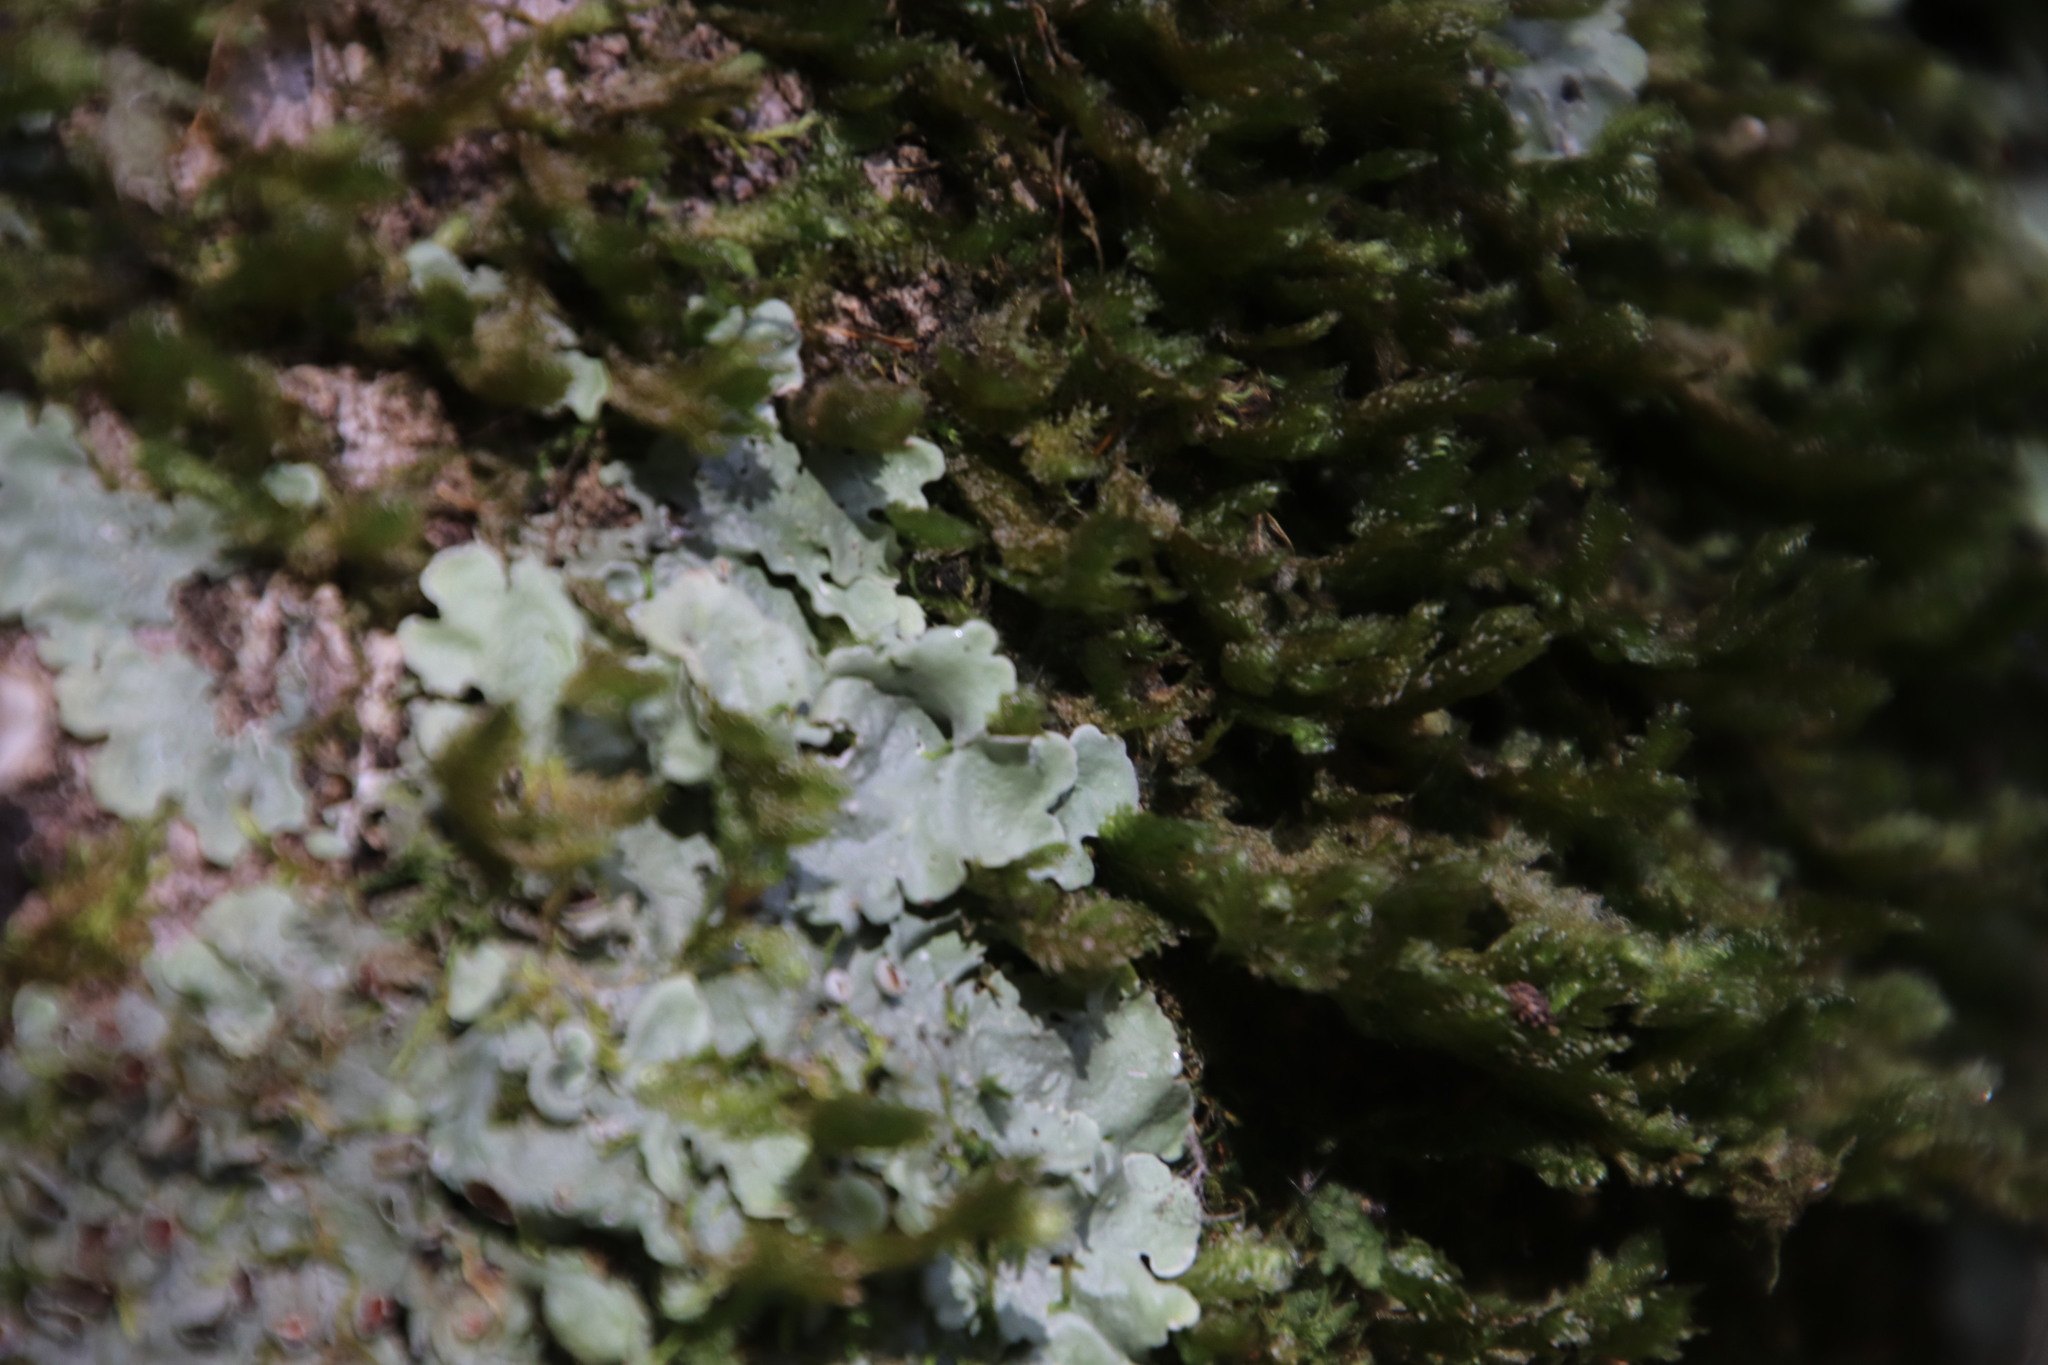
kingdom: Plantae
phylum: Bryophyta
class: Bryopsida
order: Hypnales
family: Neckeraceae
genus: Alleniella
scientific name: Alleniella ehrenbergii
